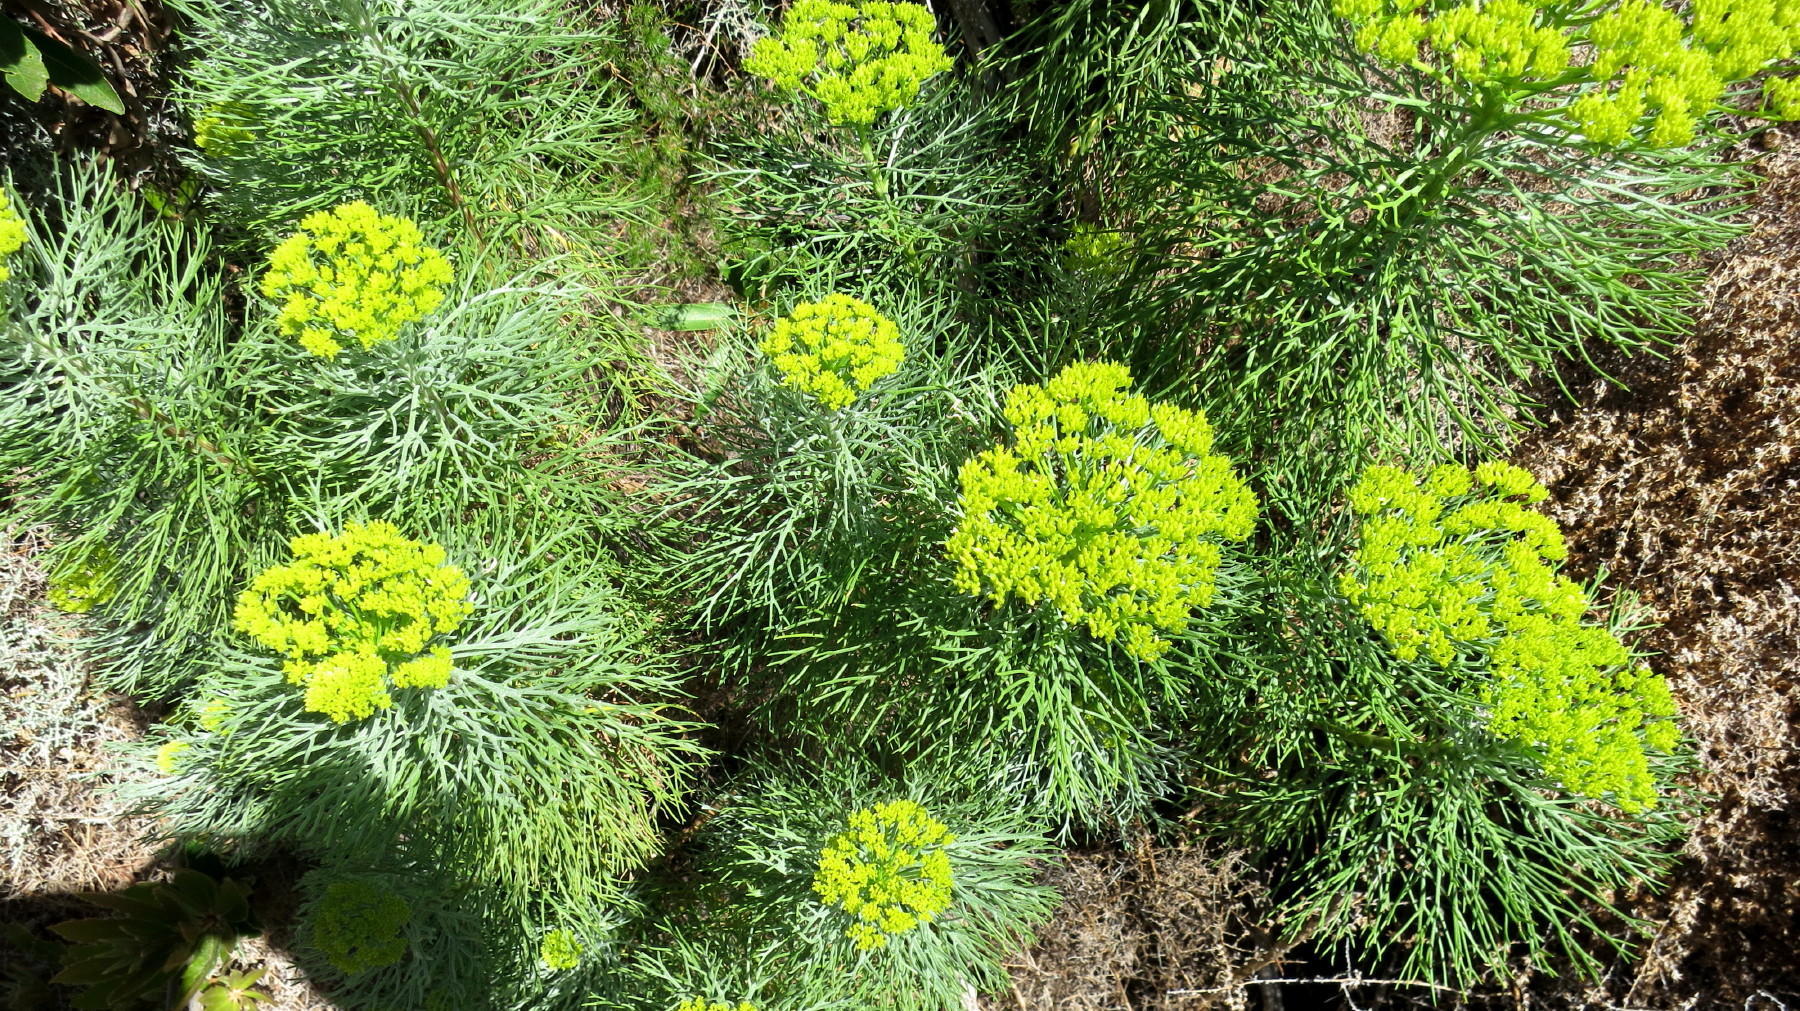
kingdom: Plantae
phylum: Tracheophyta
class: Magnoliopsida
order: Asterales
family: Asteraceae
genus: Hymenolepis
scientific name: Hymenolepis crithmifolia
